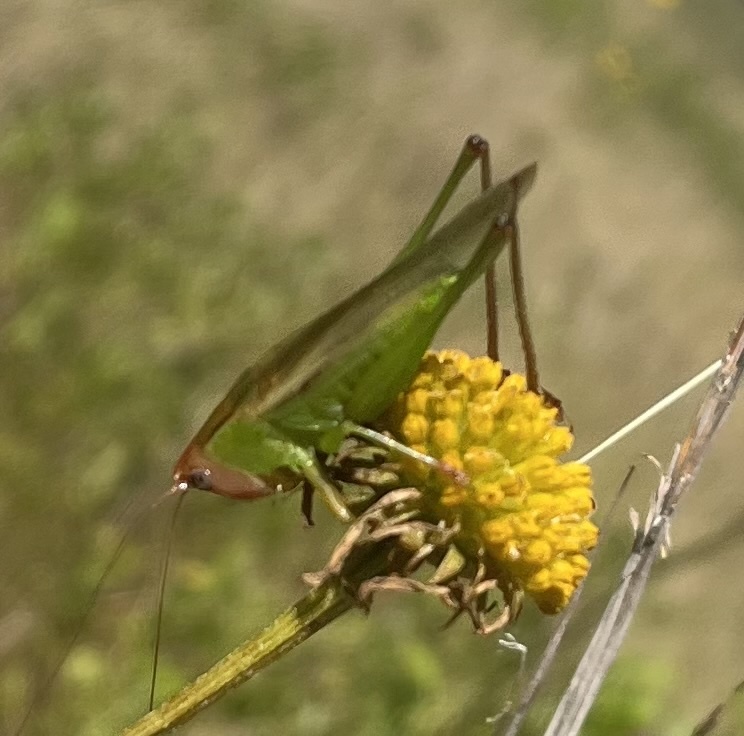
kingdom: Animalia
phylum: Arthropoda
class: Insecta
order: Orthoptera
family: Tettigoniidae
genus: Orchelimum
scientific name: Orchelimum erythrocephalum
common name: Red-headed meadow katydid
